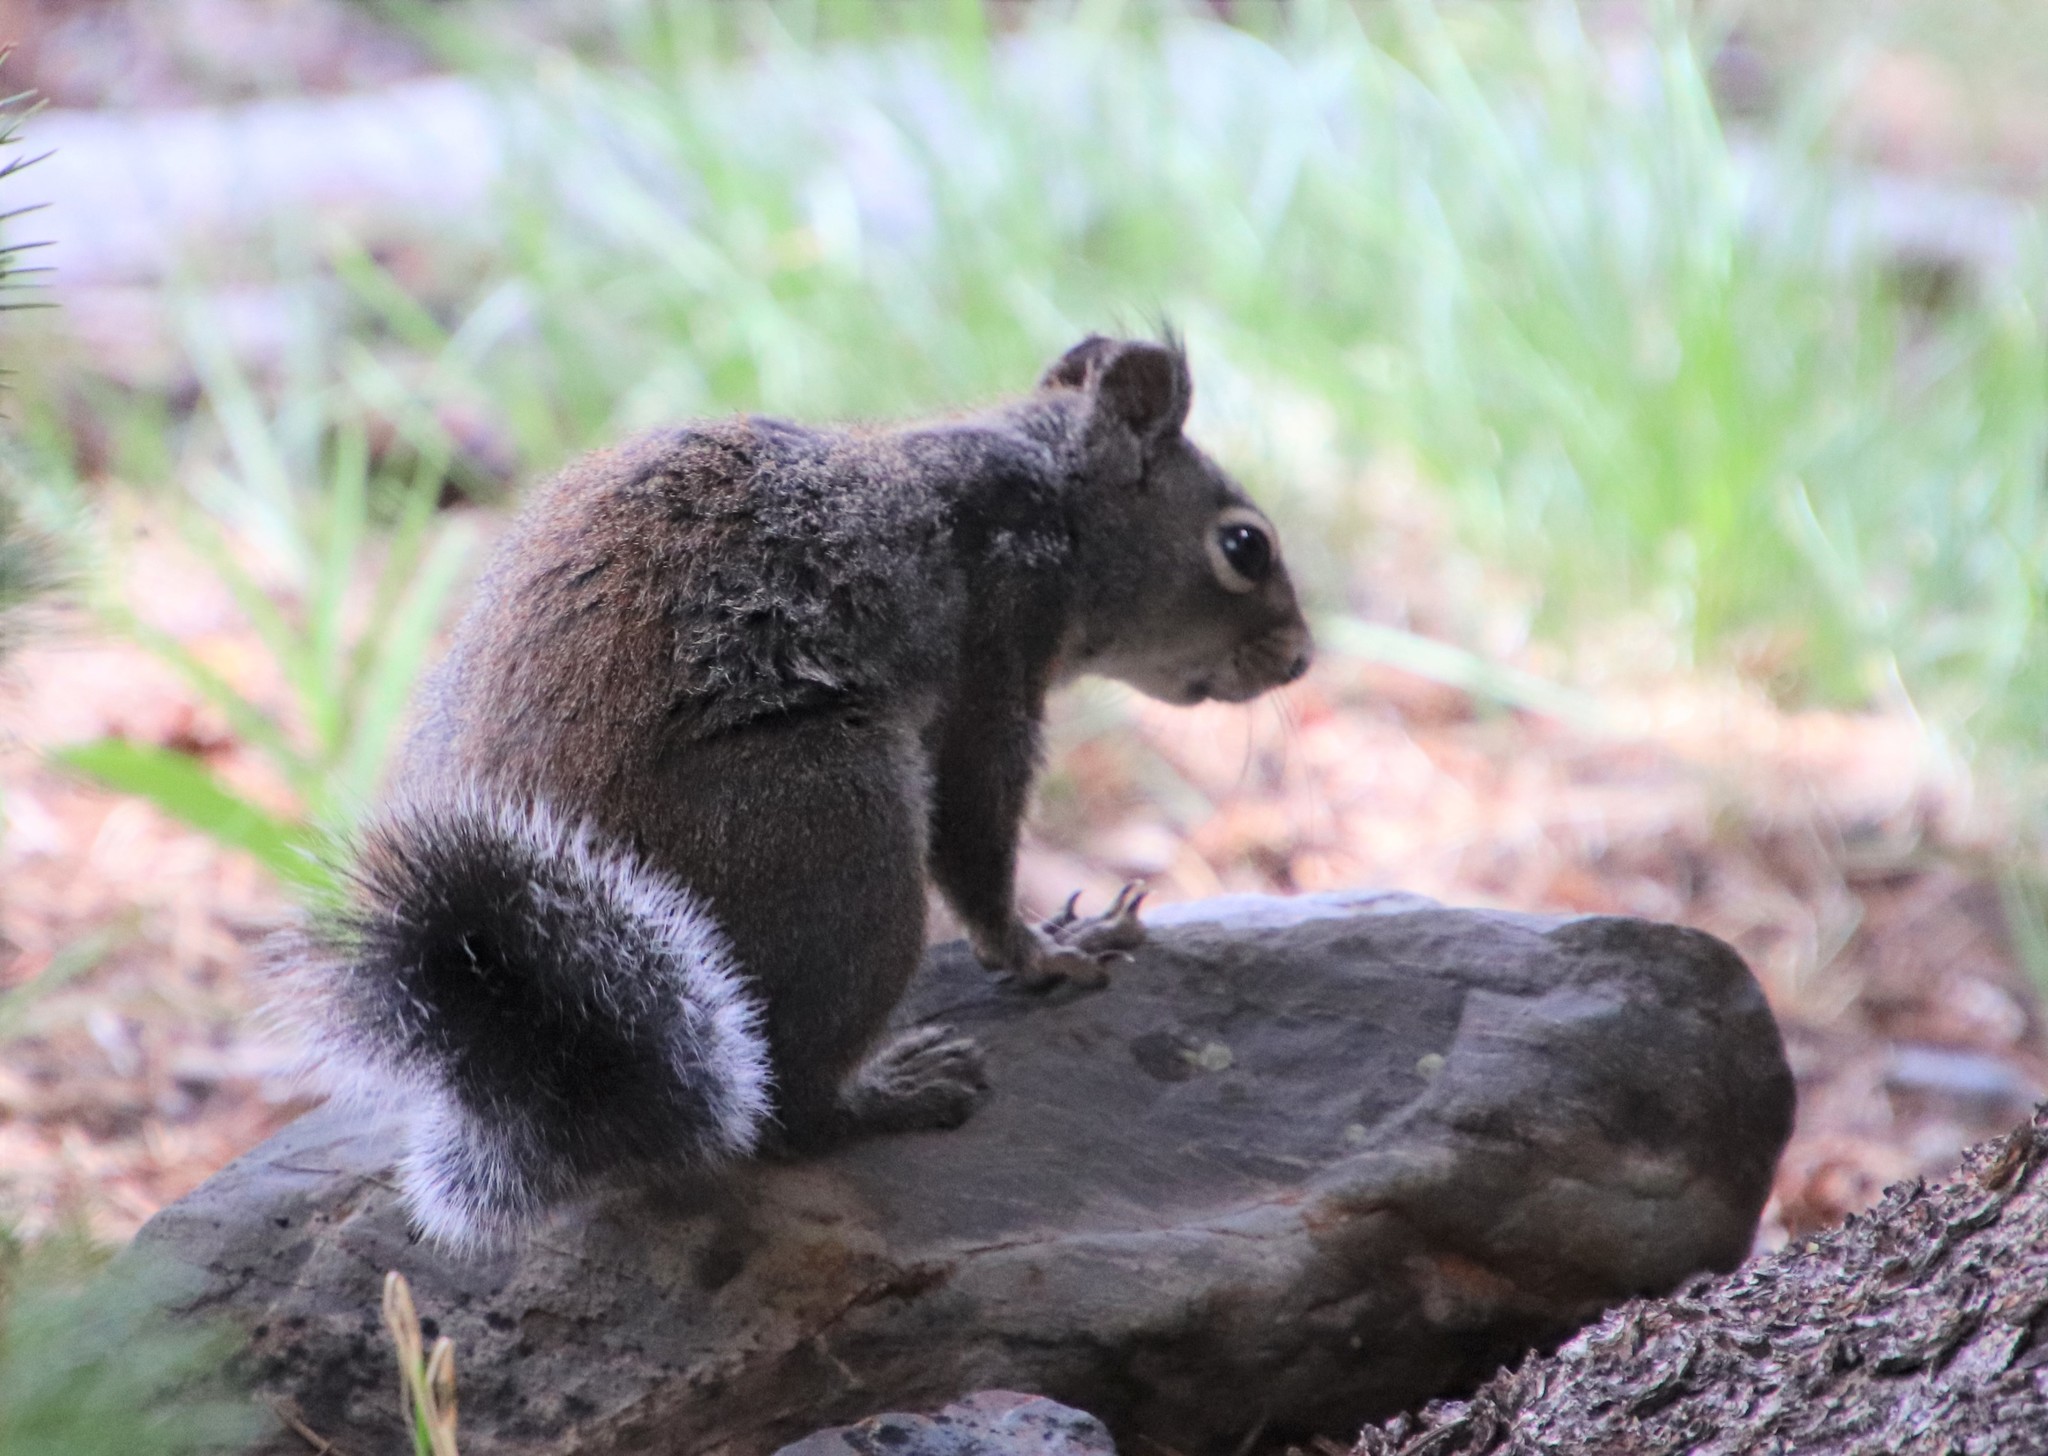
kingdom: Animalia
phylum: Chordata
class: Mammalia
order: Rodentia
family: Sciuridae
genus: Tamiasciurus
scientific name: Tamiasciurus douglasii
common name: Douglas's squirrel
